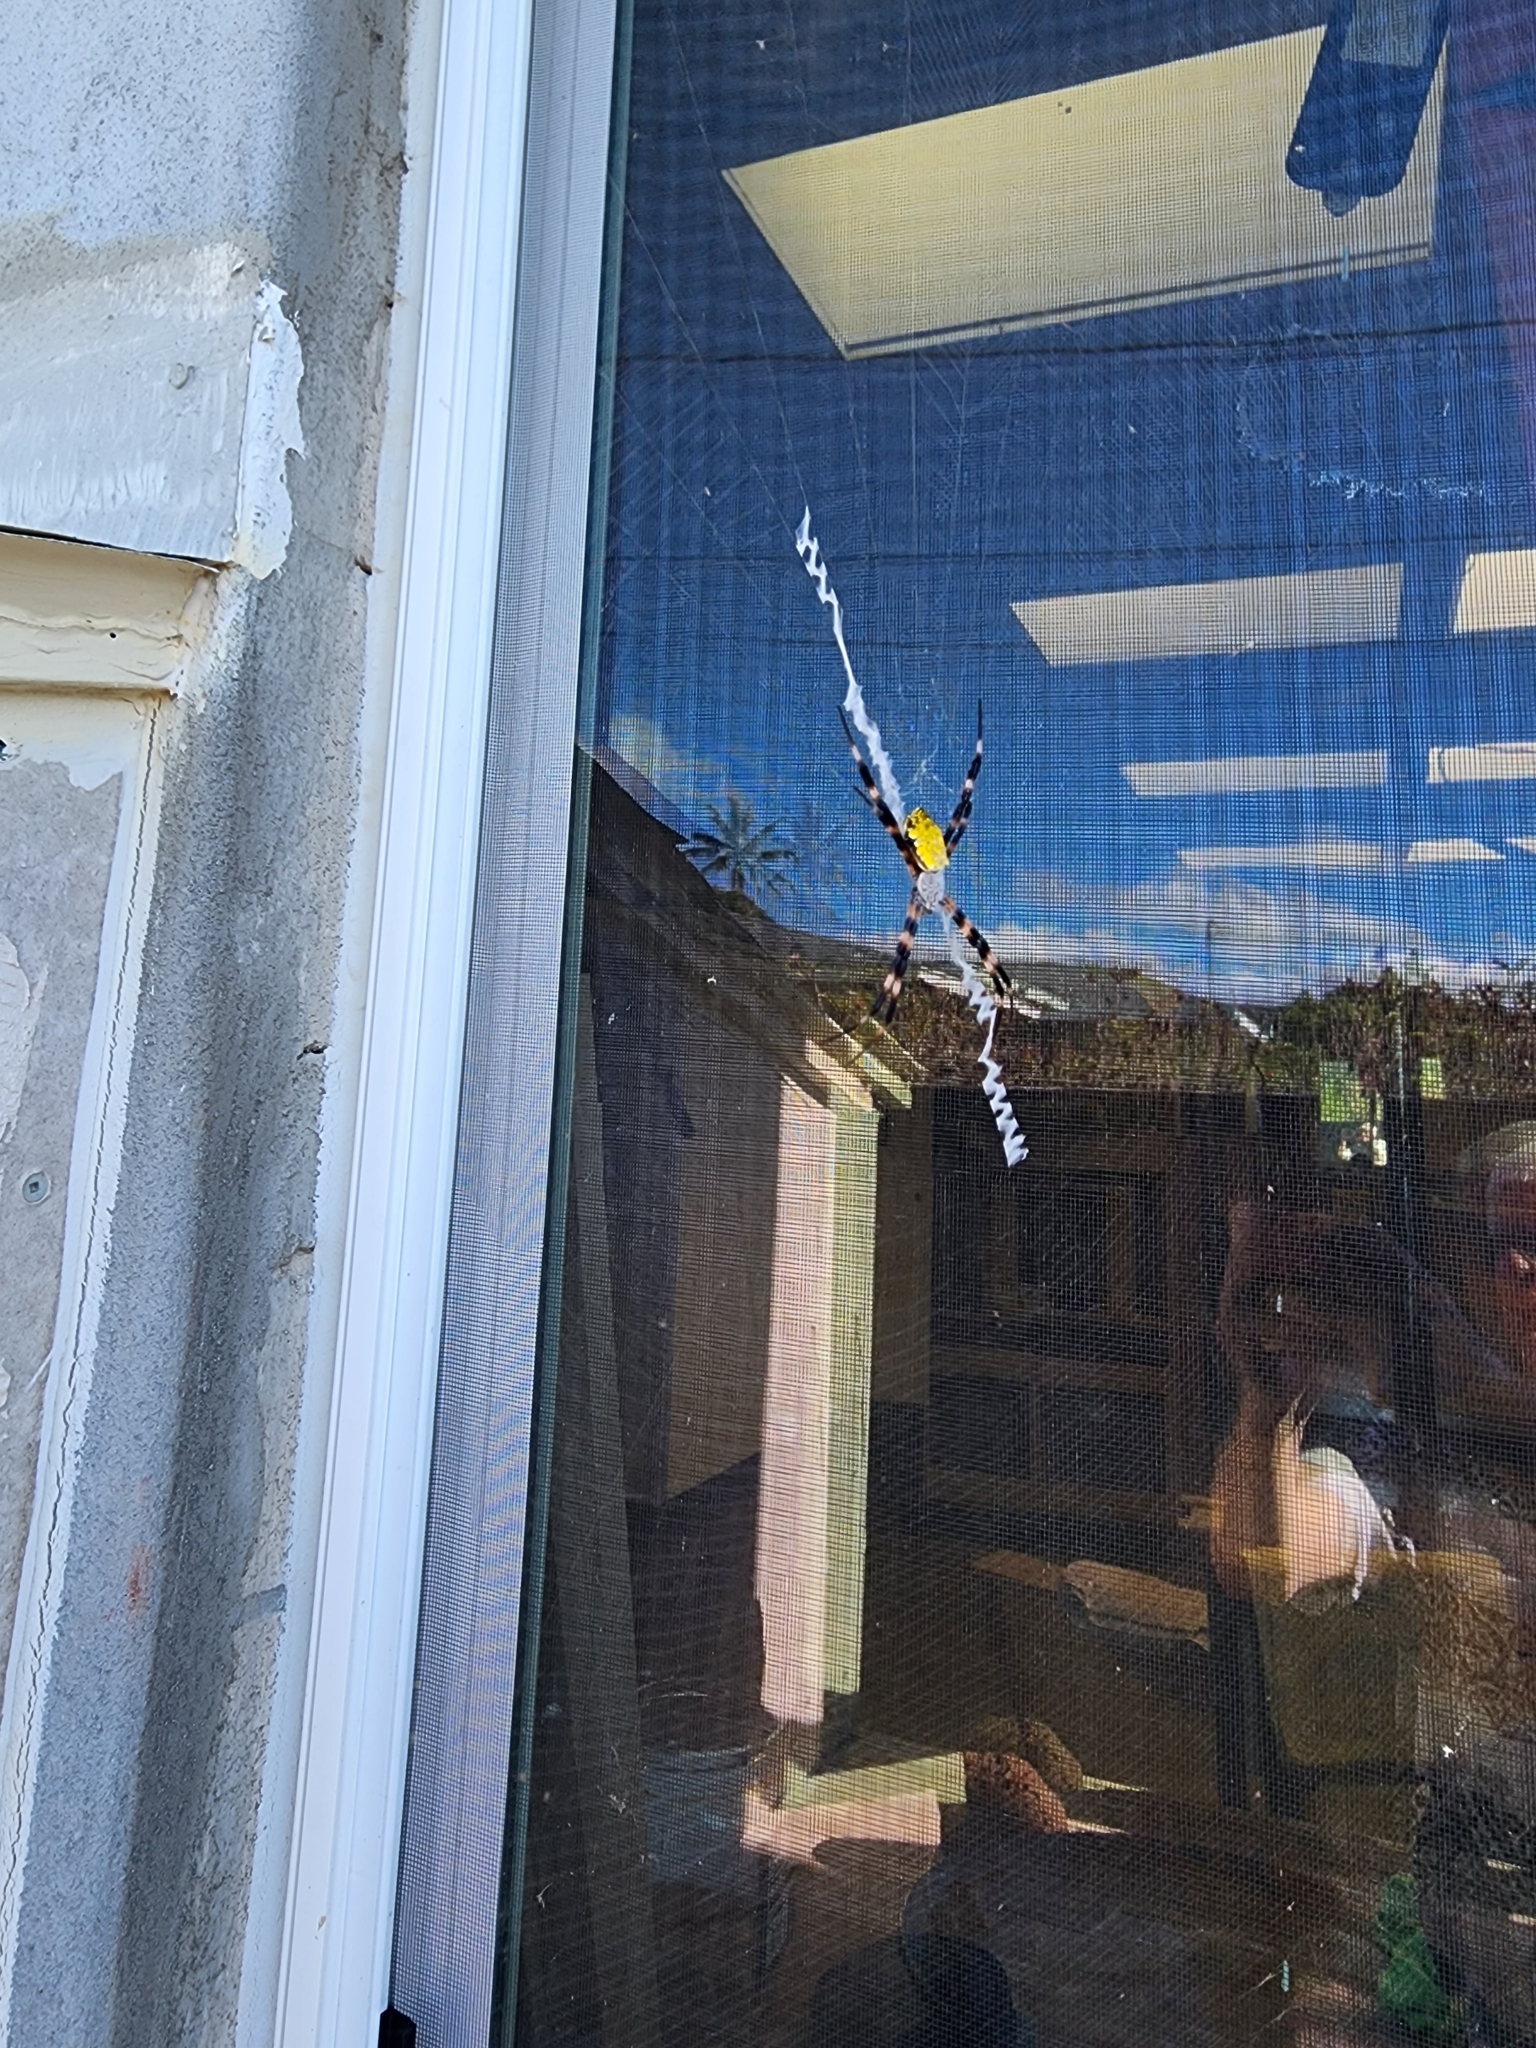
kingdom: Animalia
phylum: Arthropoda
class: Arachnida
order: Araneae
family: Araneidae
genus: Argiope
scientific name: Argiope appensa
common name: Garden spider
